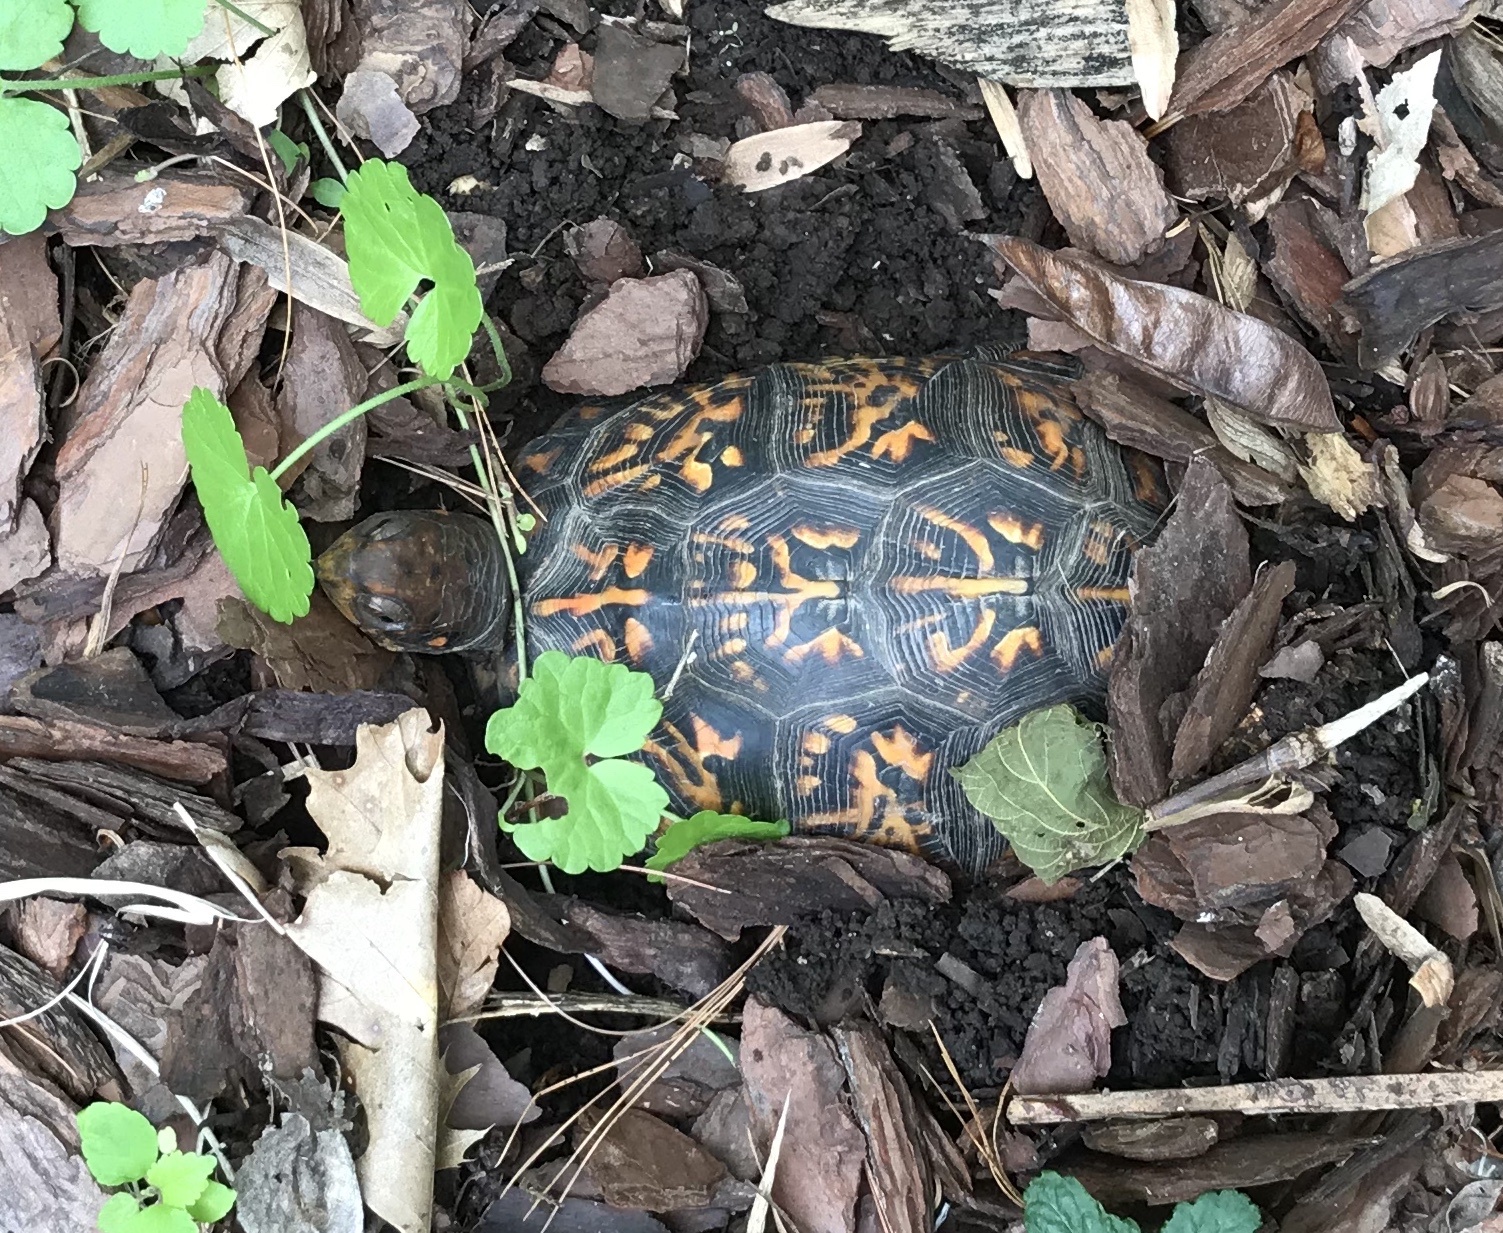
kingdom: Animalia
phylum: Chordata
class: Testudines
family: Emydidae
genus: Terrapene
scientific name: Terrapene carolina
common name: Common box turtle
